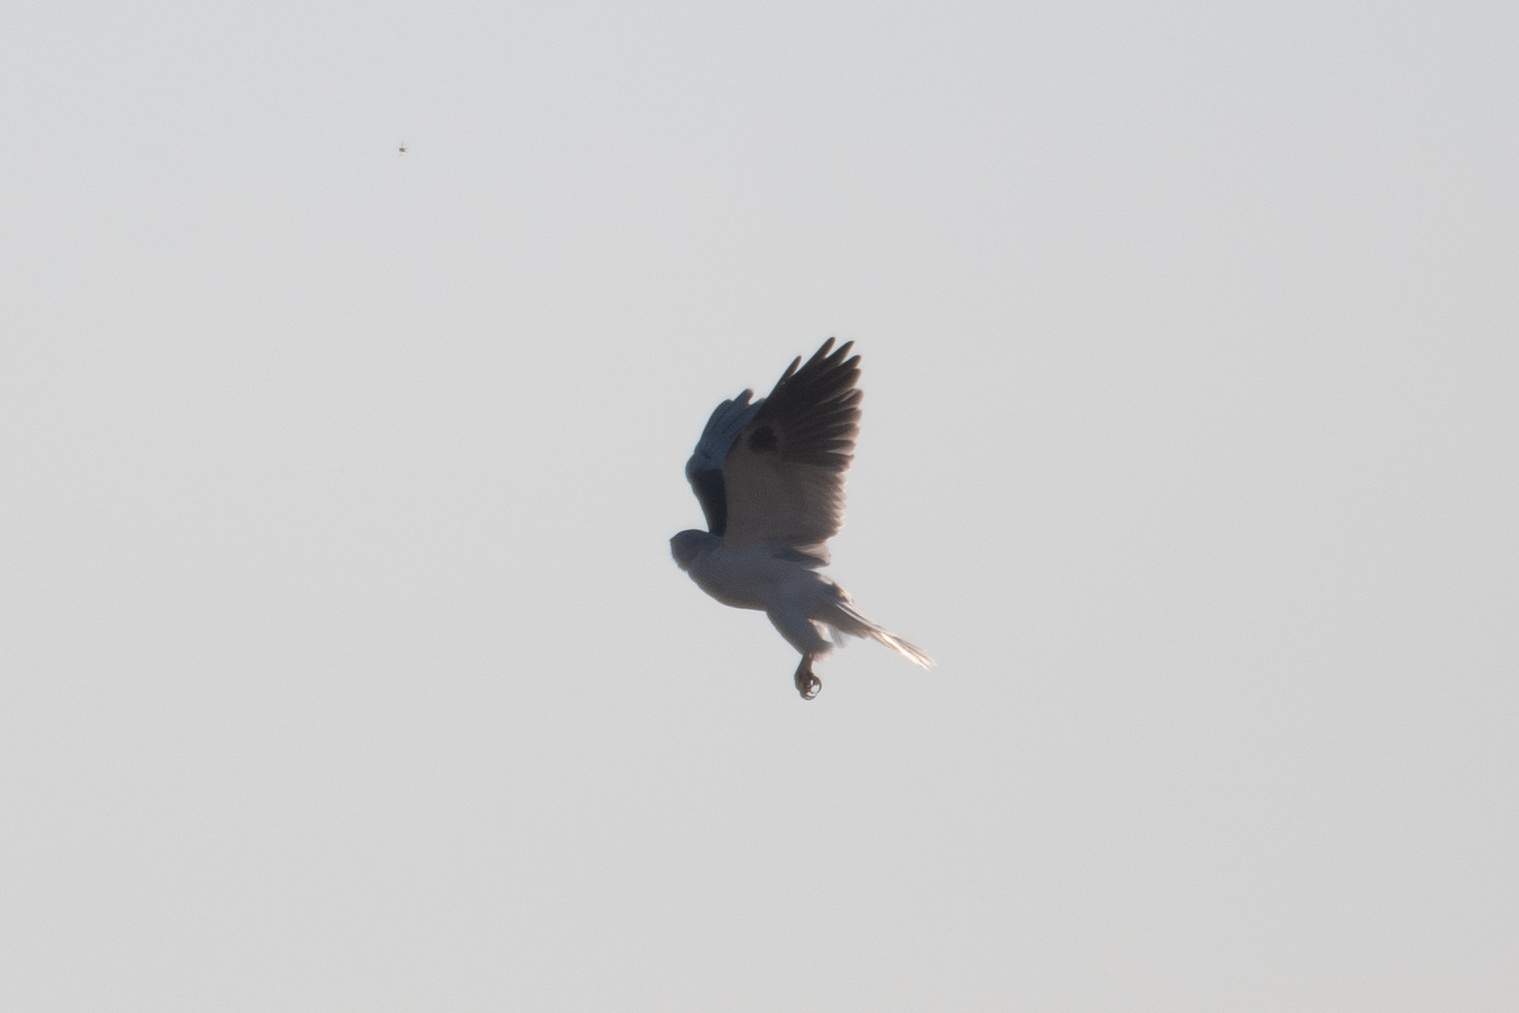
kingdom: Animalia
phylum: Chordata
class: Aves
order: Accipitriformes
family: Accipitridae
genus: Elanus
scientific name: Elanus leucurus
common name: White-tailed kite
